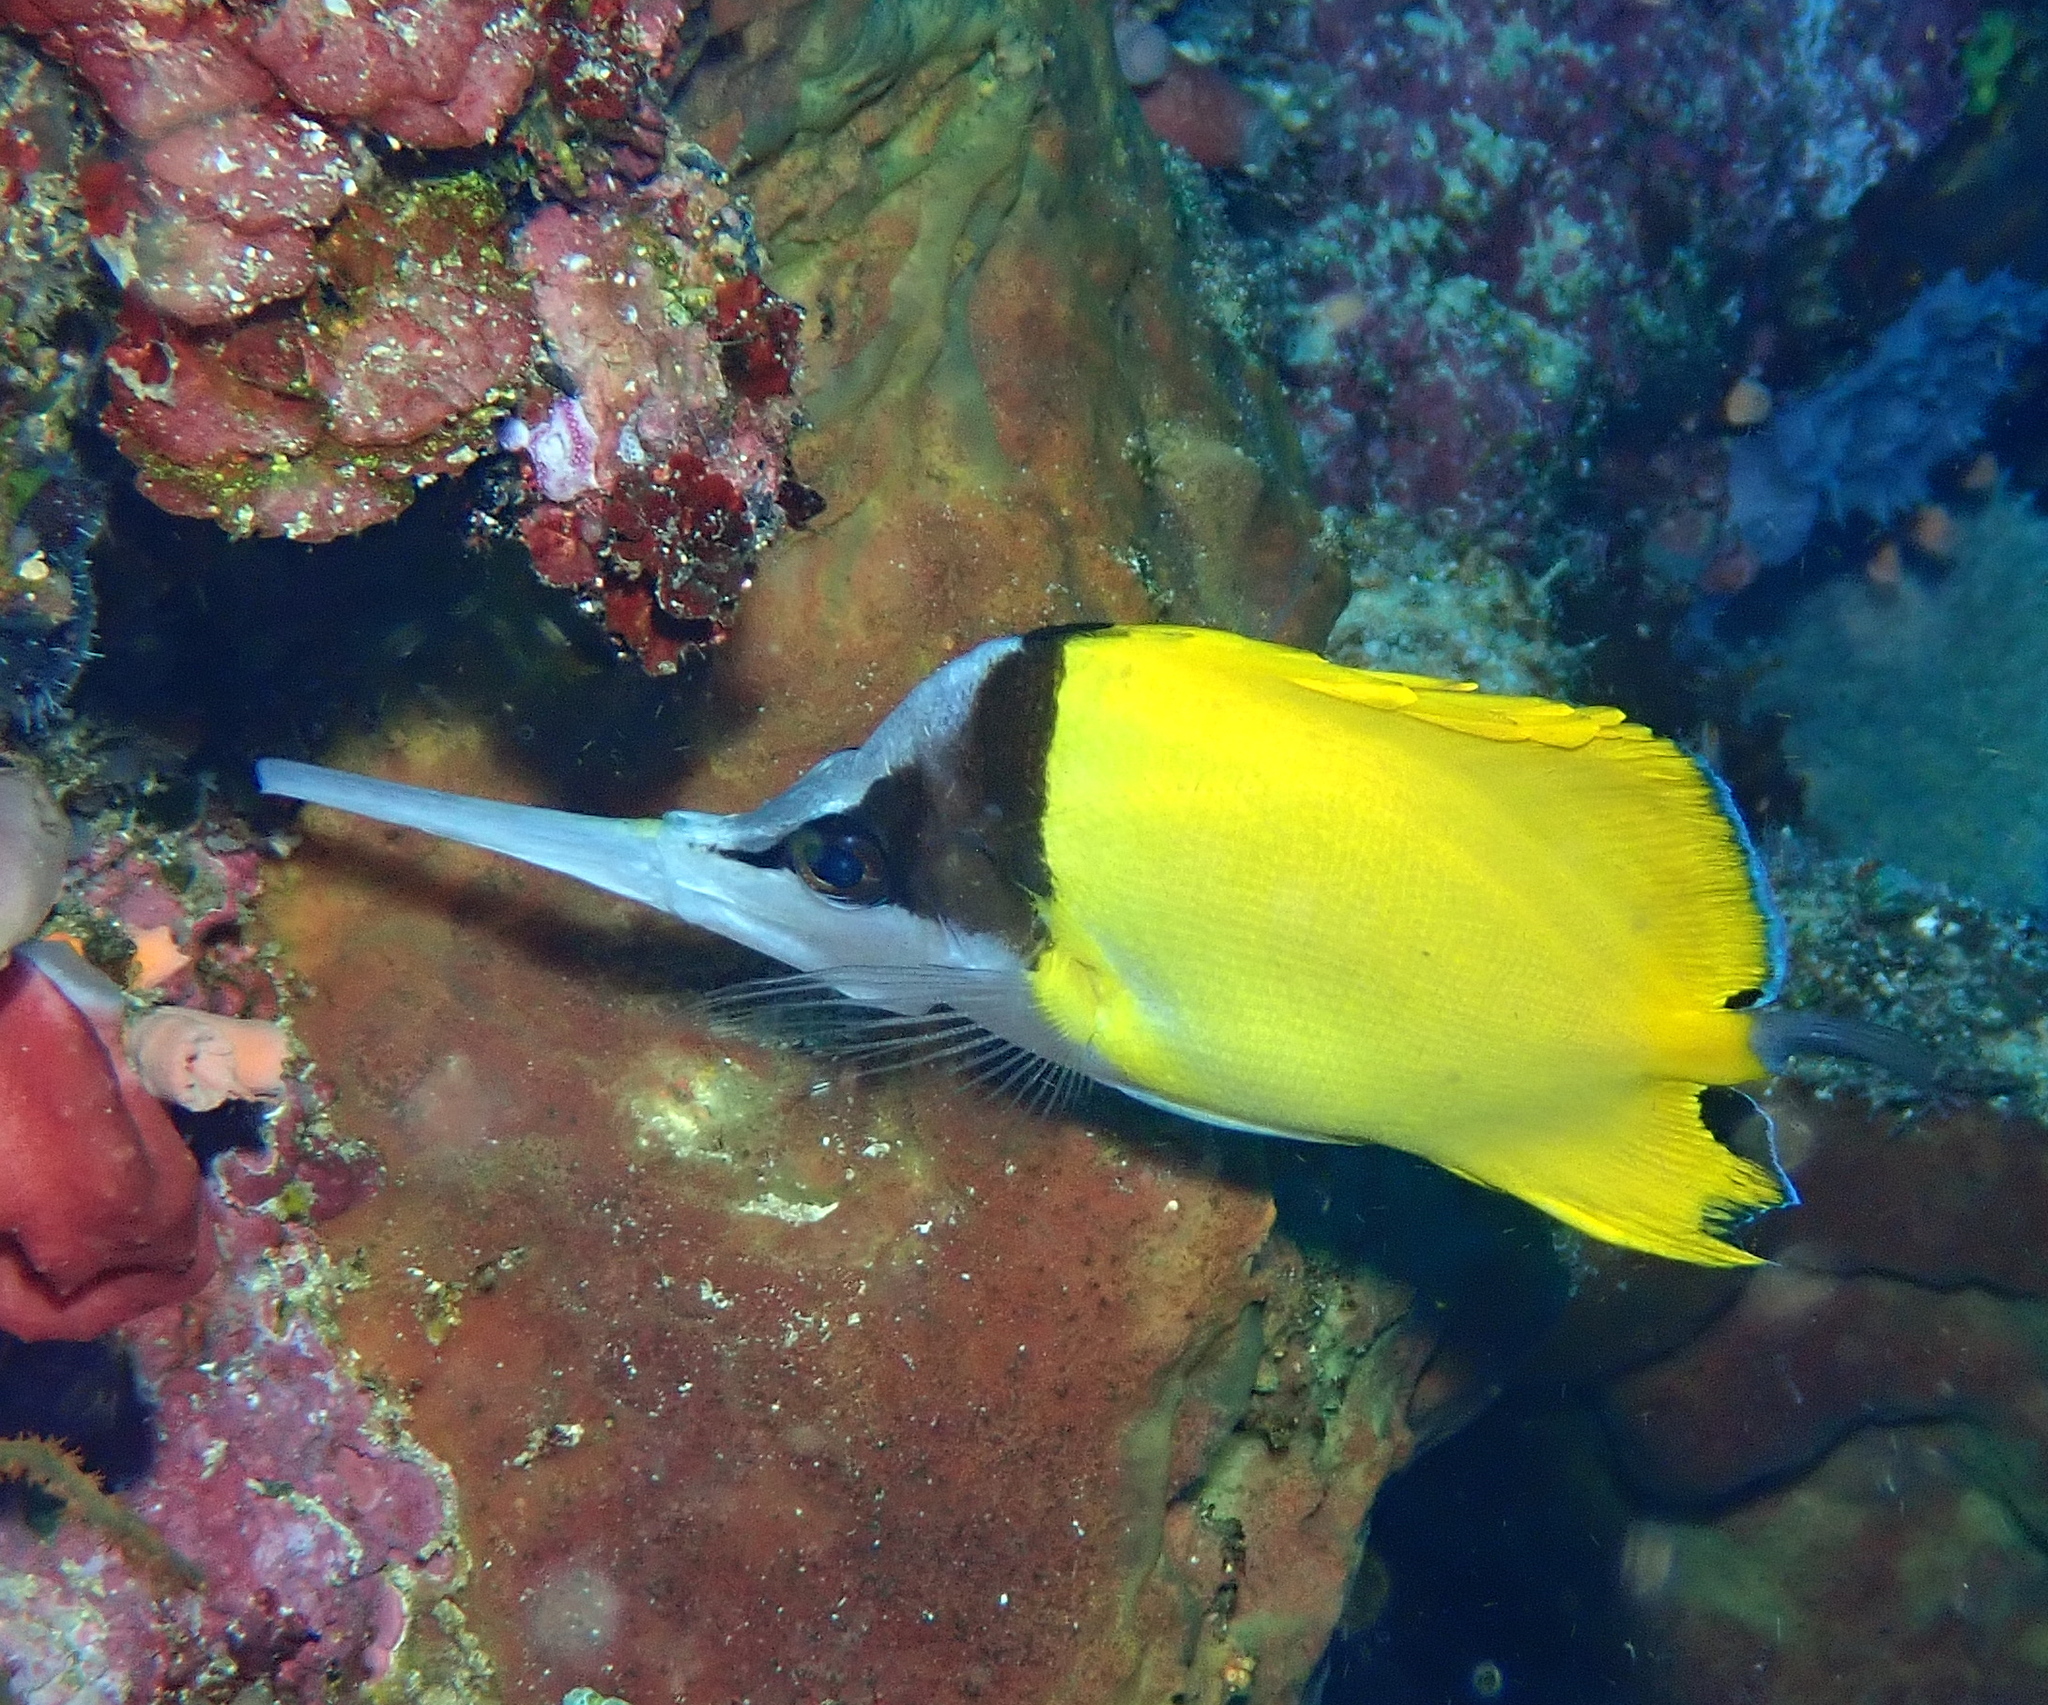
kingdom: Animalia
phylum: Chordata
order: Perciformes
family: Chaetodontidae
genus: Forcipiger
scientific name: Forcipiger longirostris
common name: Longnose butterflyfish
